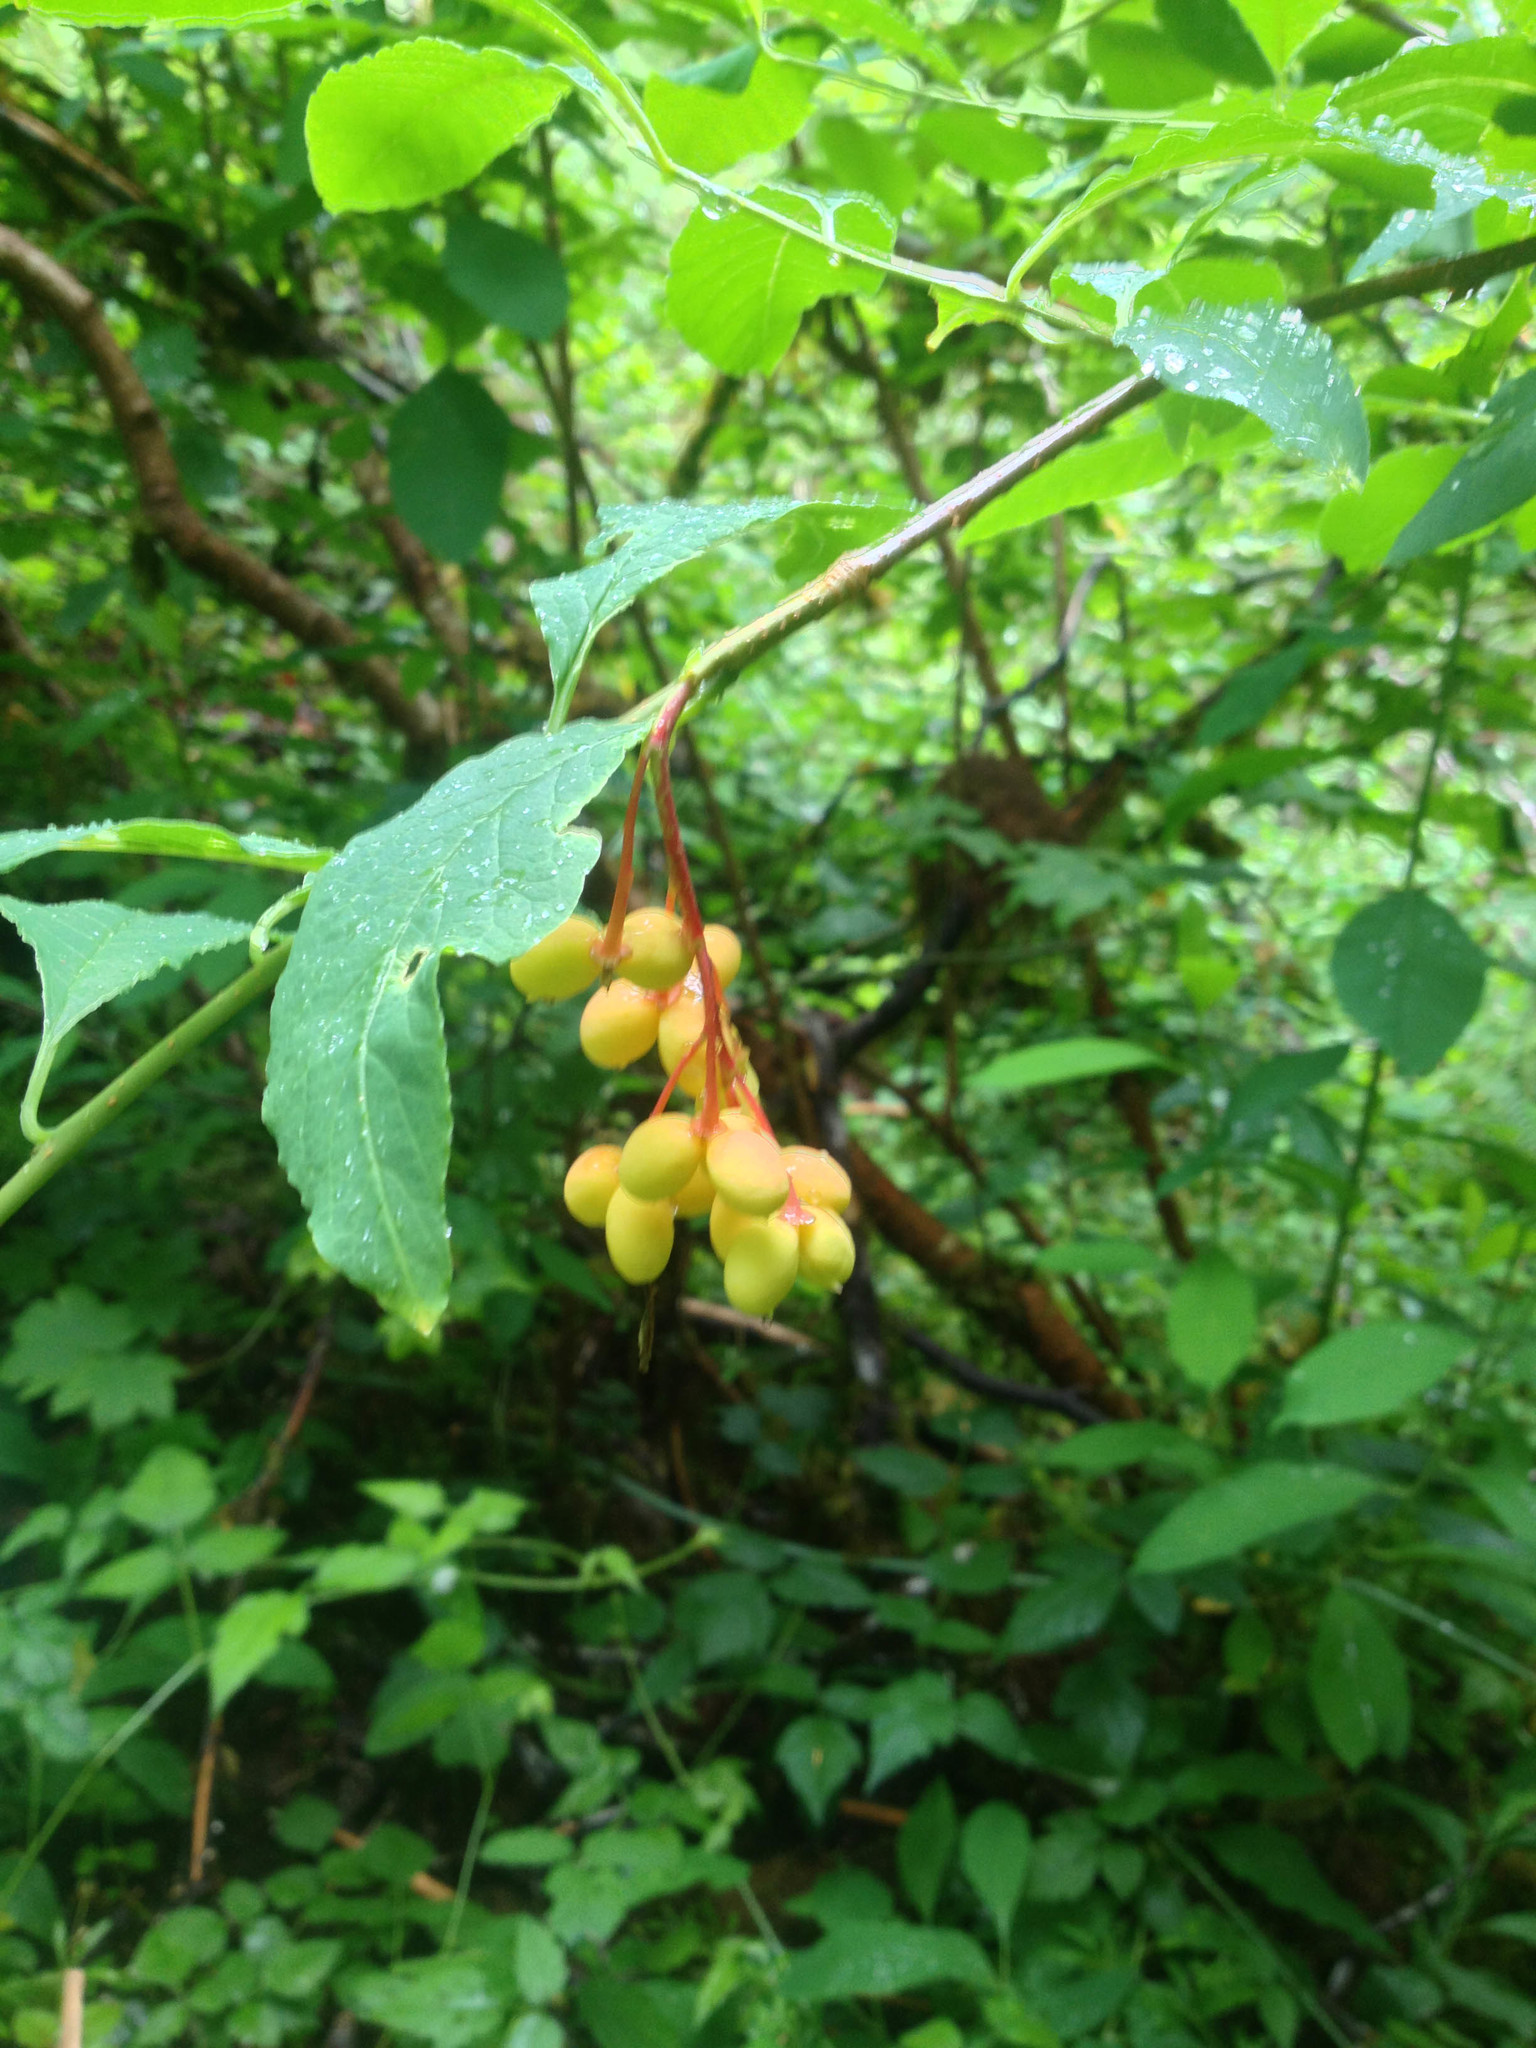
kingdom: Plantae
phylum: Tracheophyta
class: Magnoliopsida
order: Rosales
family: Rosaceae
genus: Oemleria
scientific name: Oemleria cerasiformis
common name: Osoberry
